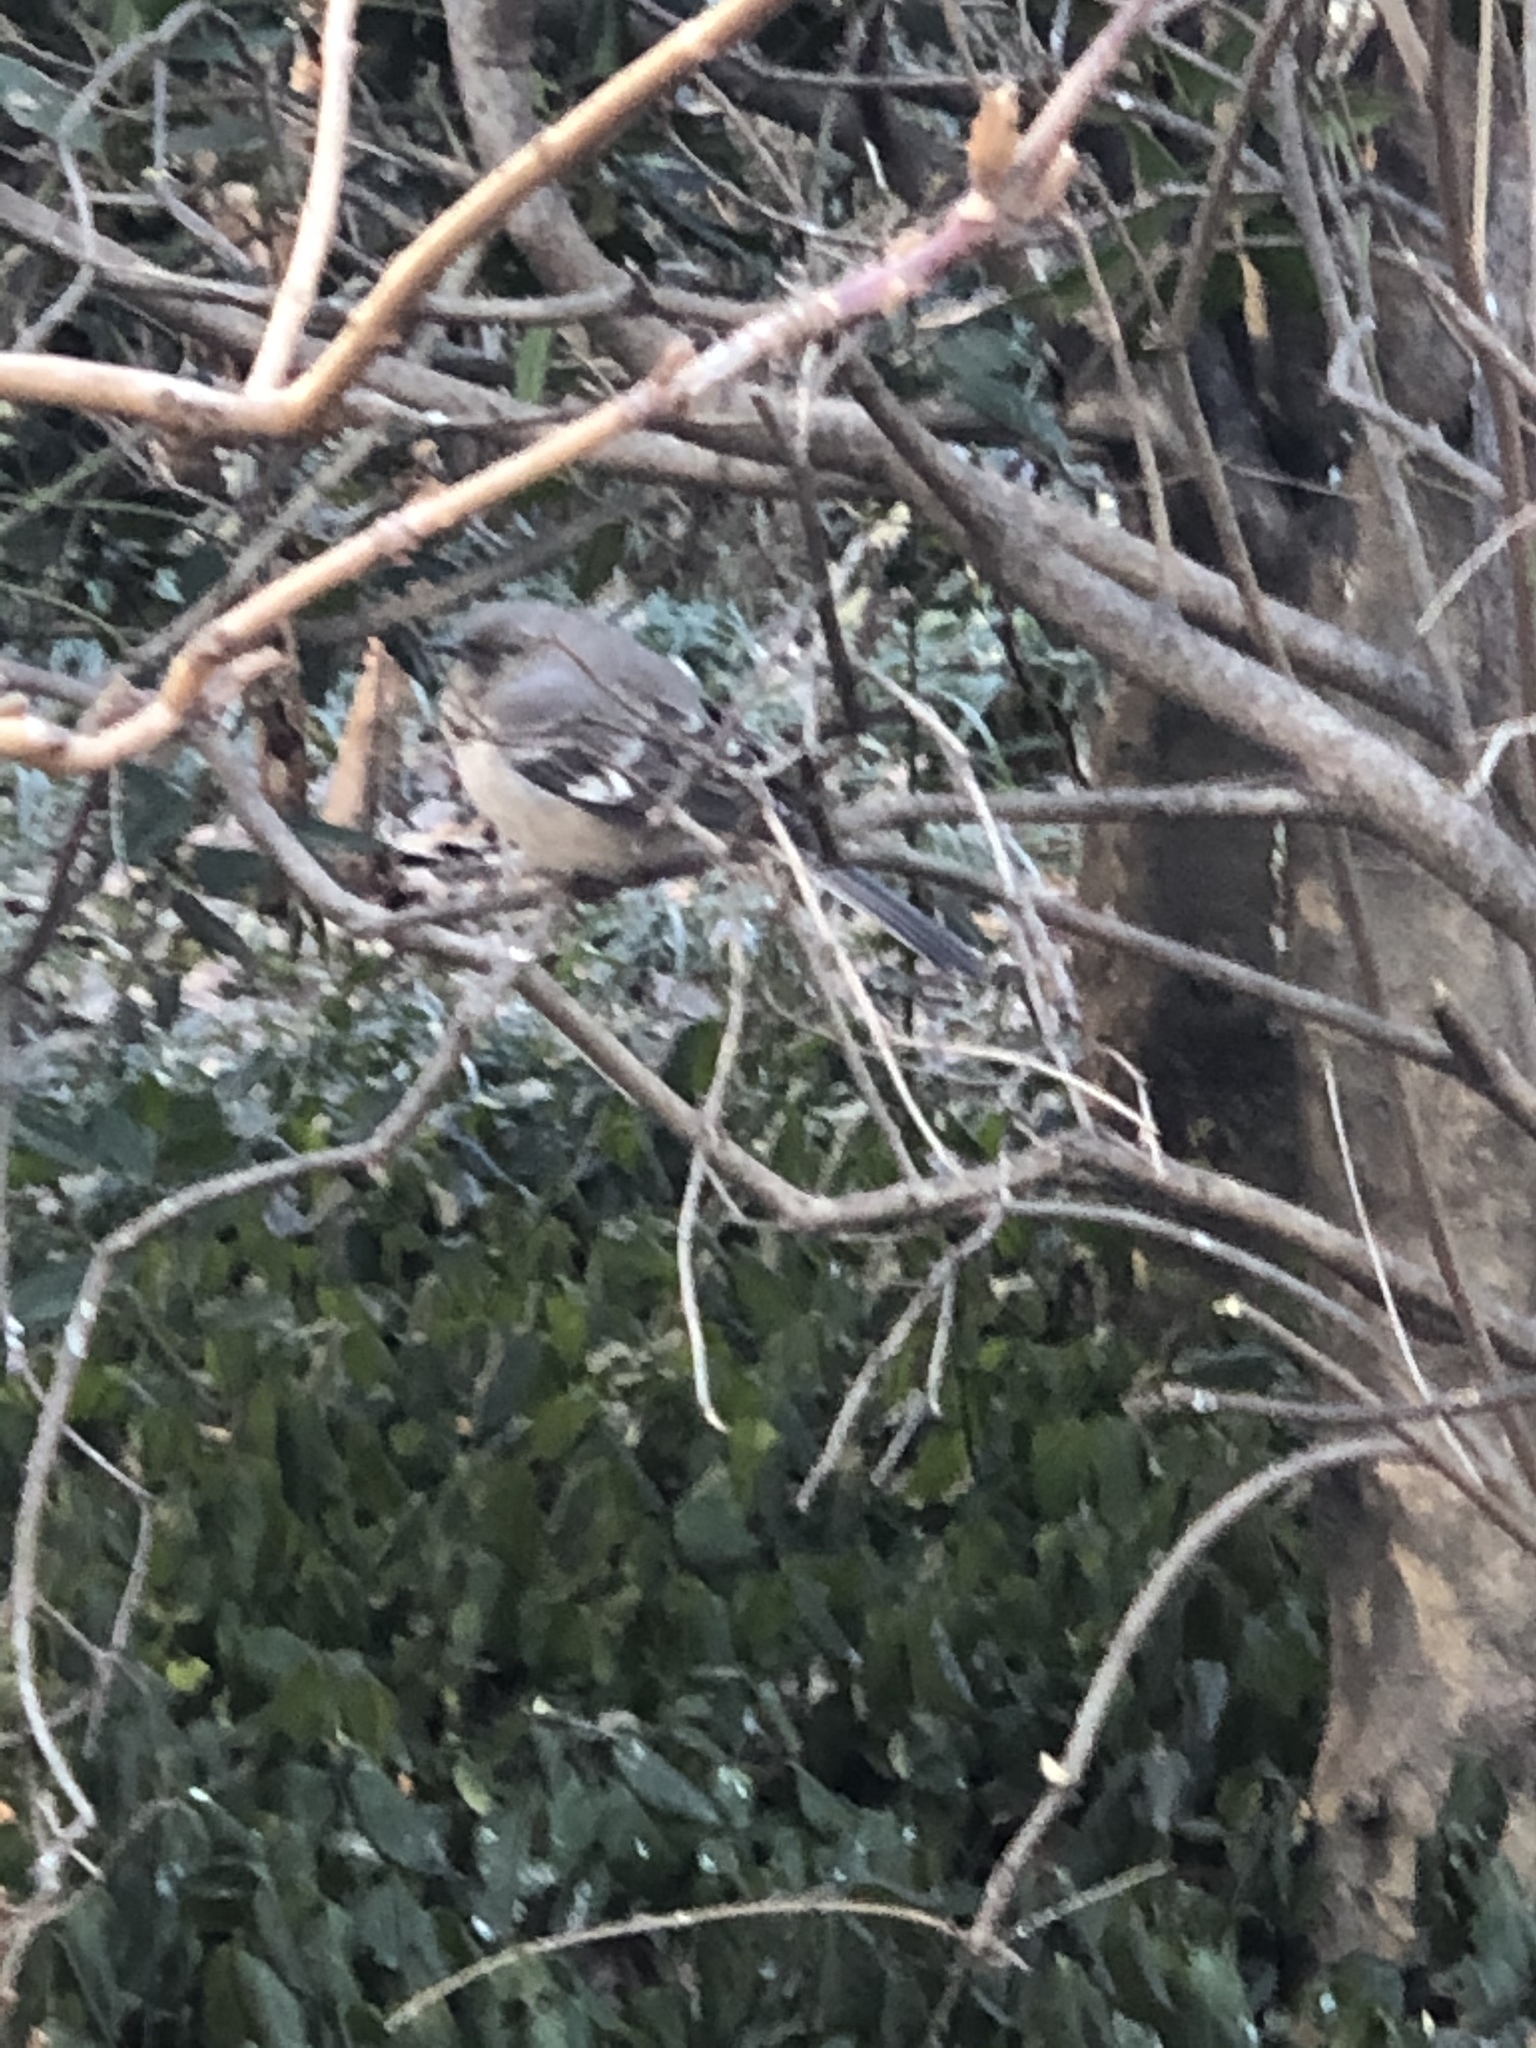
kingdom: Animalia
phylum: Chordata
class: Aves
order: Passeriformes
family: Mimidae
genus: Mimus
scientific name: Mimus polyglottos
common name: Northern mockingbird
